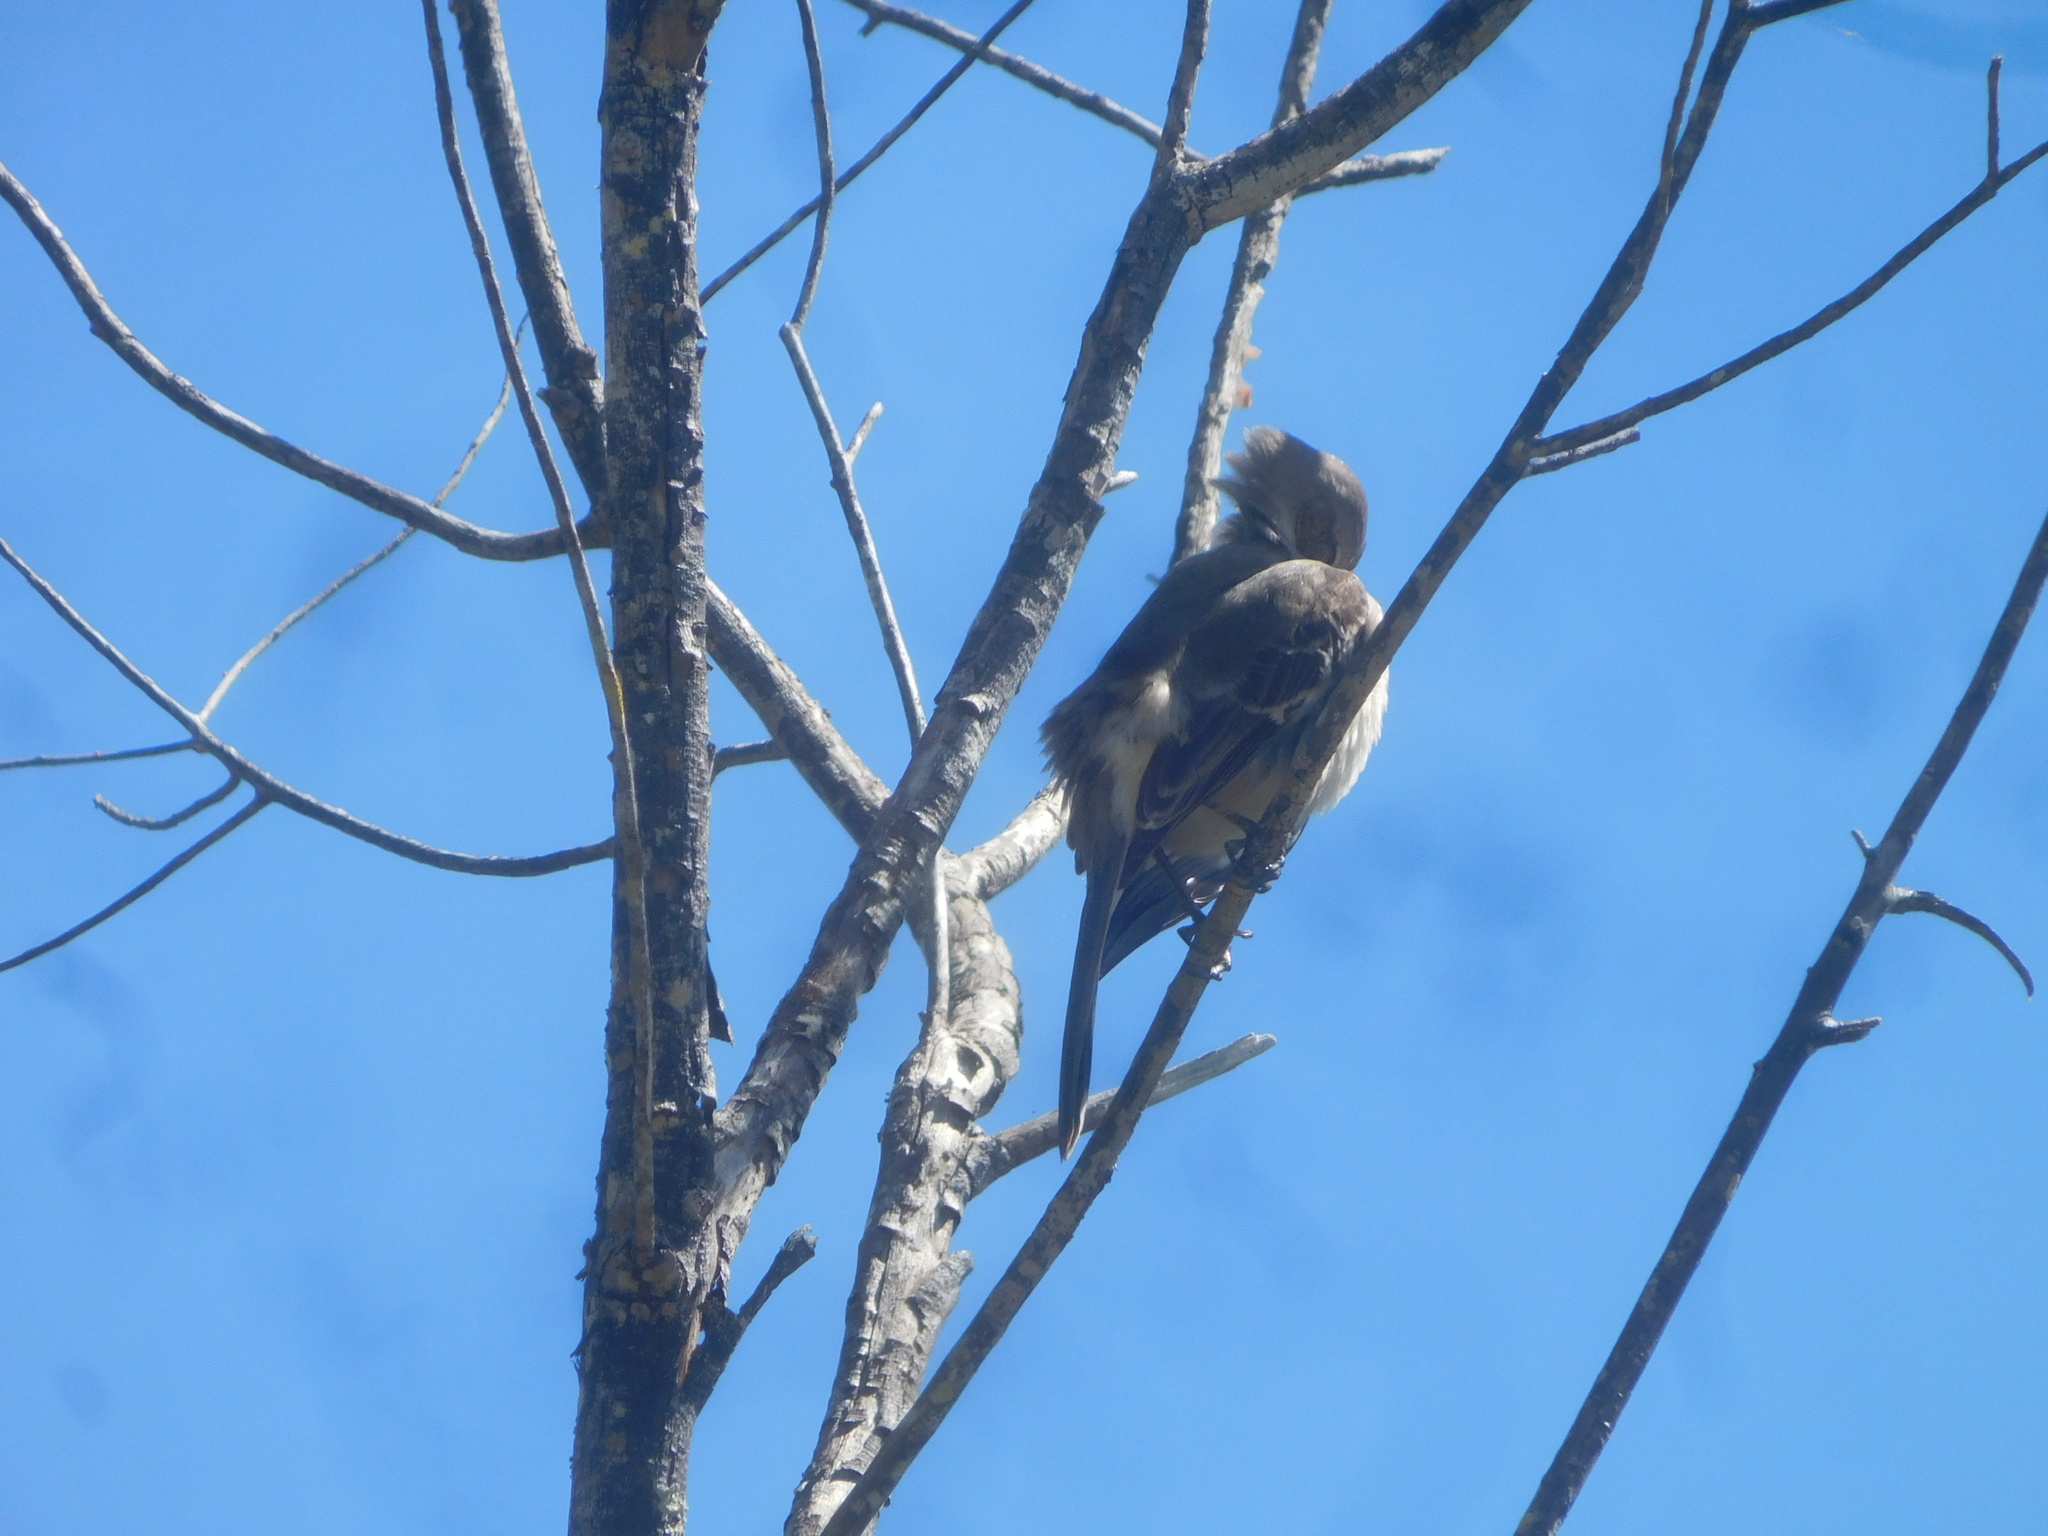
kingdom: Animalia
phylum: Chordata
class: Aves
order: Passeriformes
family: Mimidae
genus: Mimus
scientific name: Mimus polyglottos
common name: Northern mockingbird
